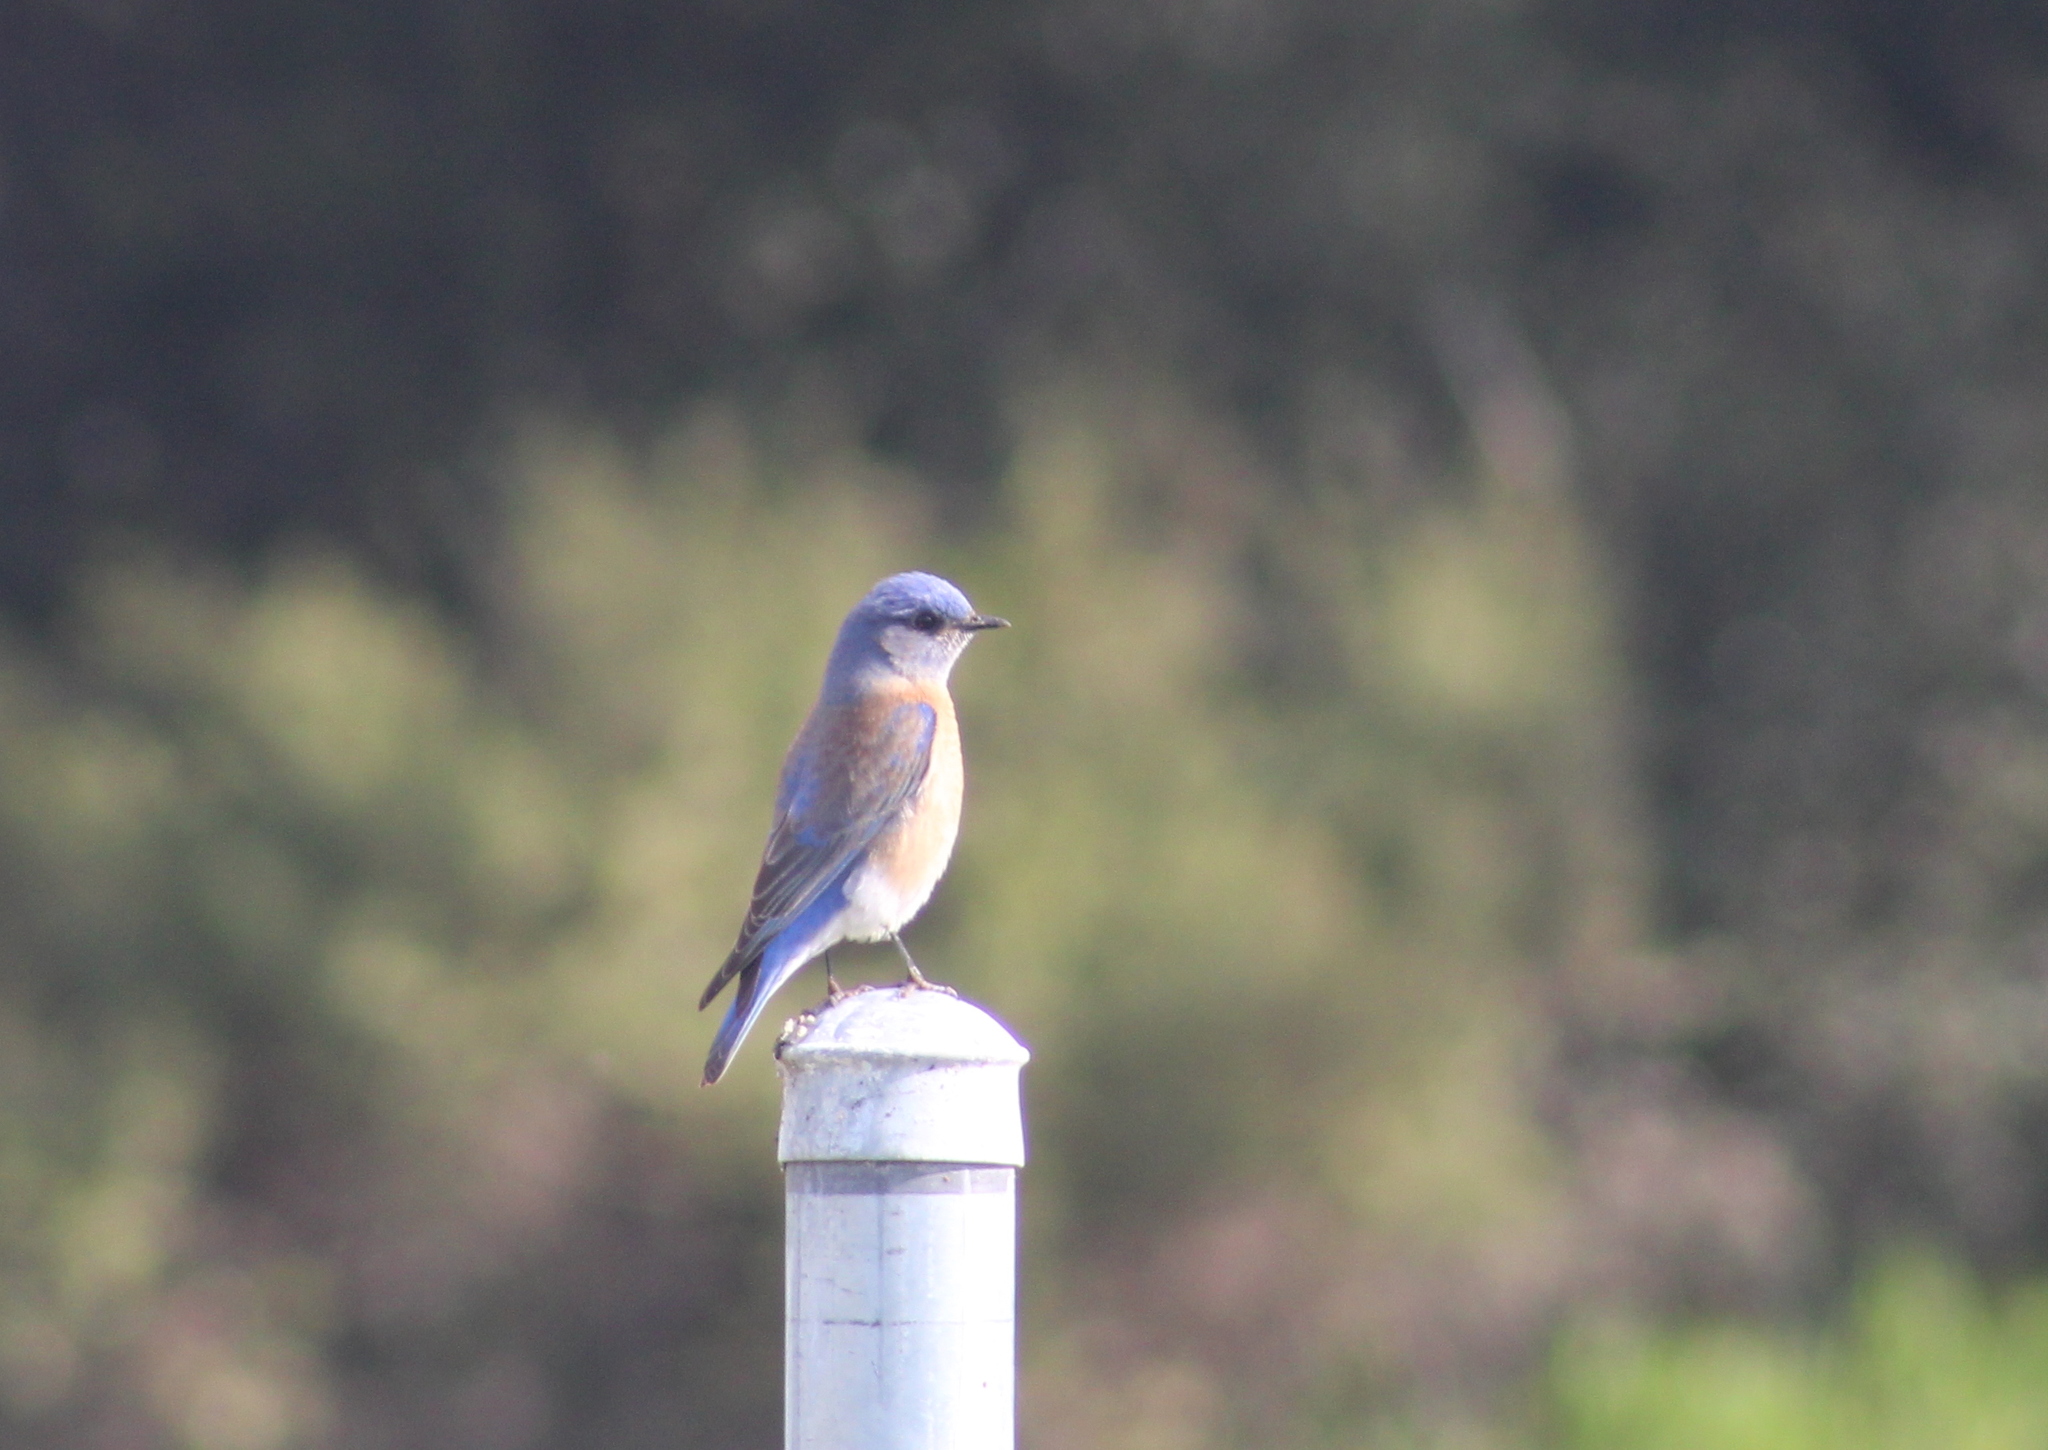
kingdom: Animalia
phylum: Chordata
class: Aves
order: Passeriformes
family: Turdidae
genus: Sialia
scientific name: Sialia mexicana
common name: Western bluebird
